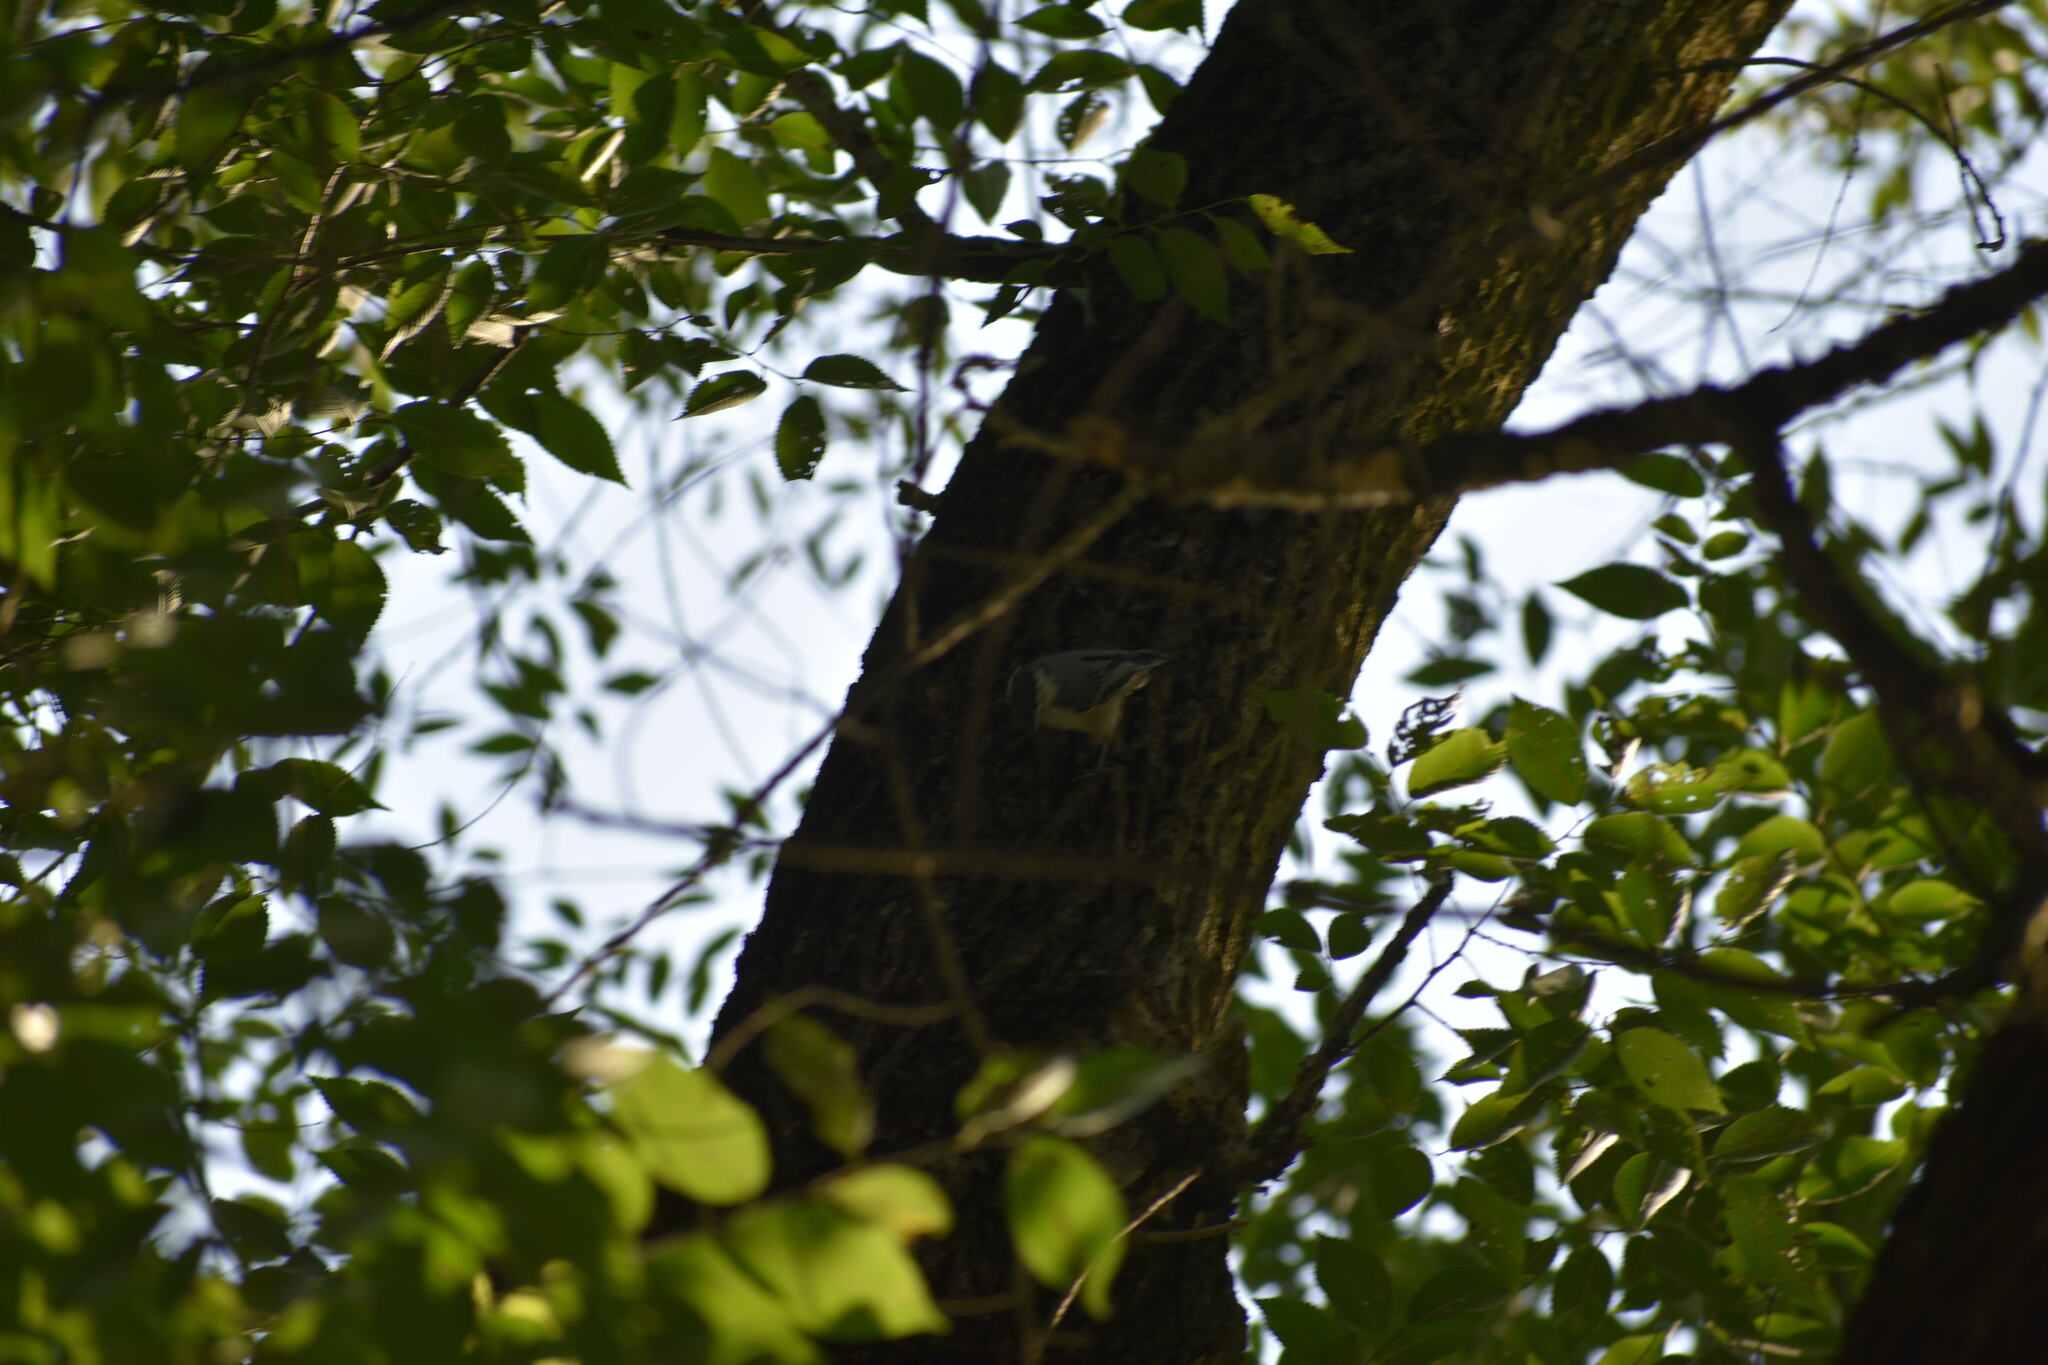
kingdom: Animalia
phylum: Chordata
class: Aves
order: Passeriformes
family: Sittidae
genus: Sitta
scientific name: Sitta carolinensis
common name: White-breasted nuthatch
